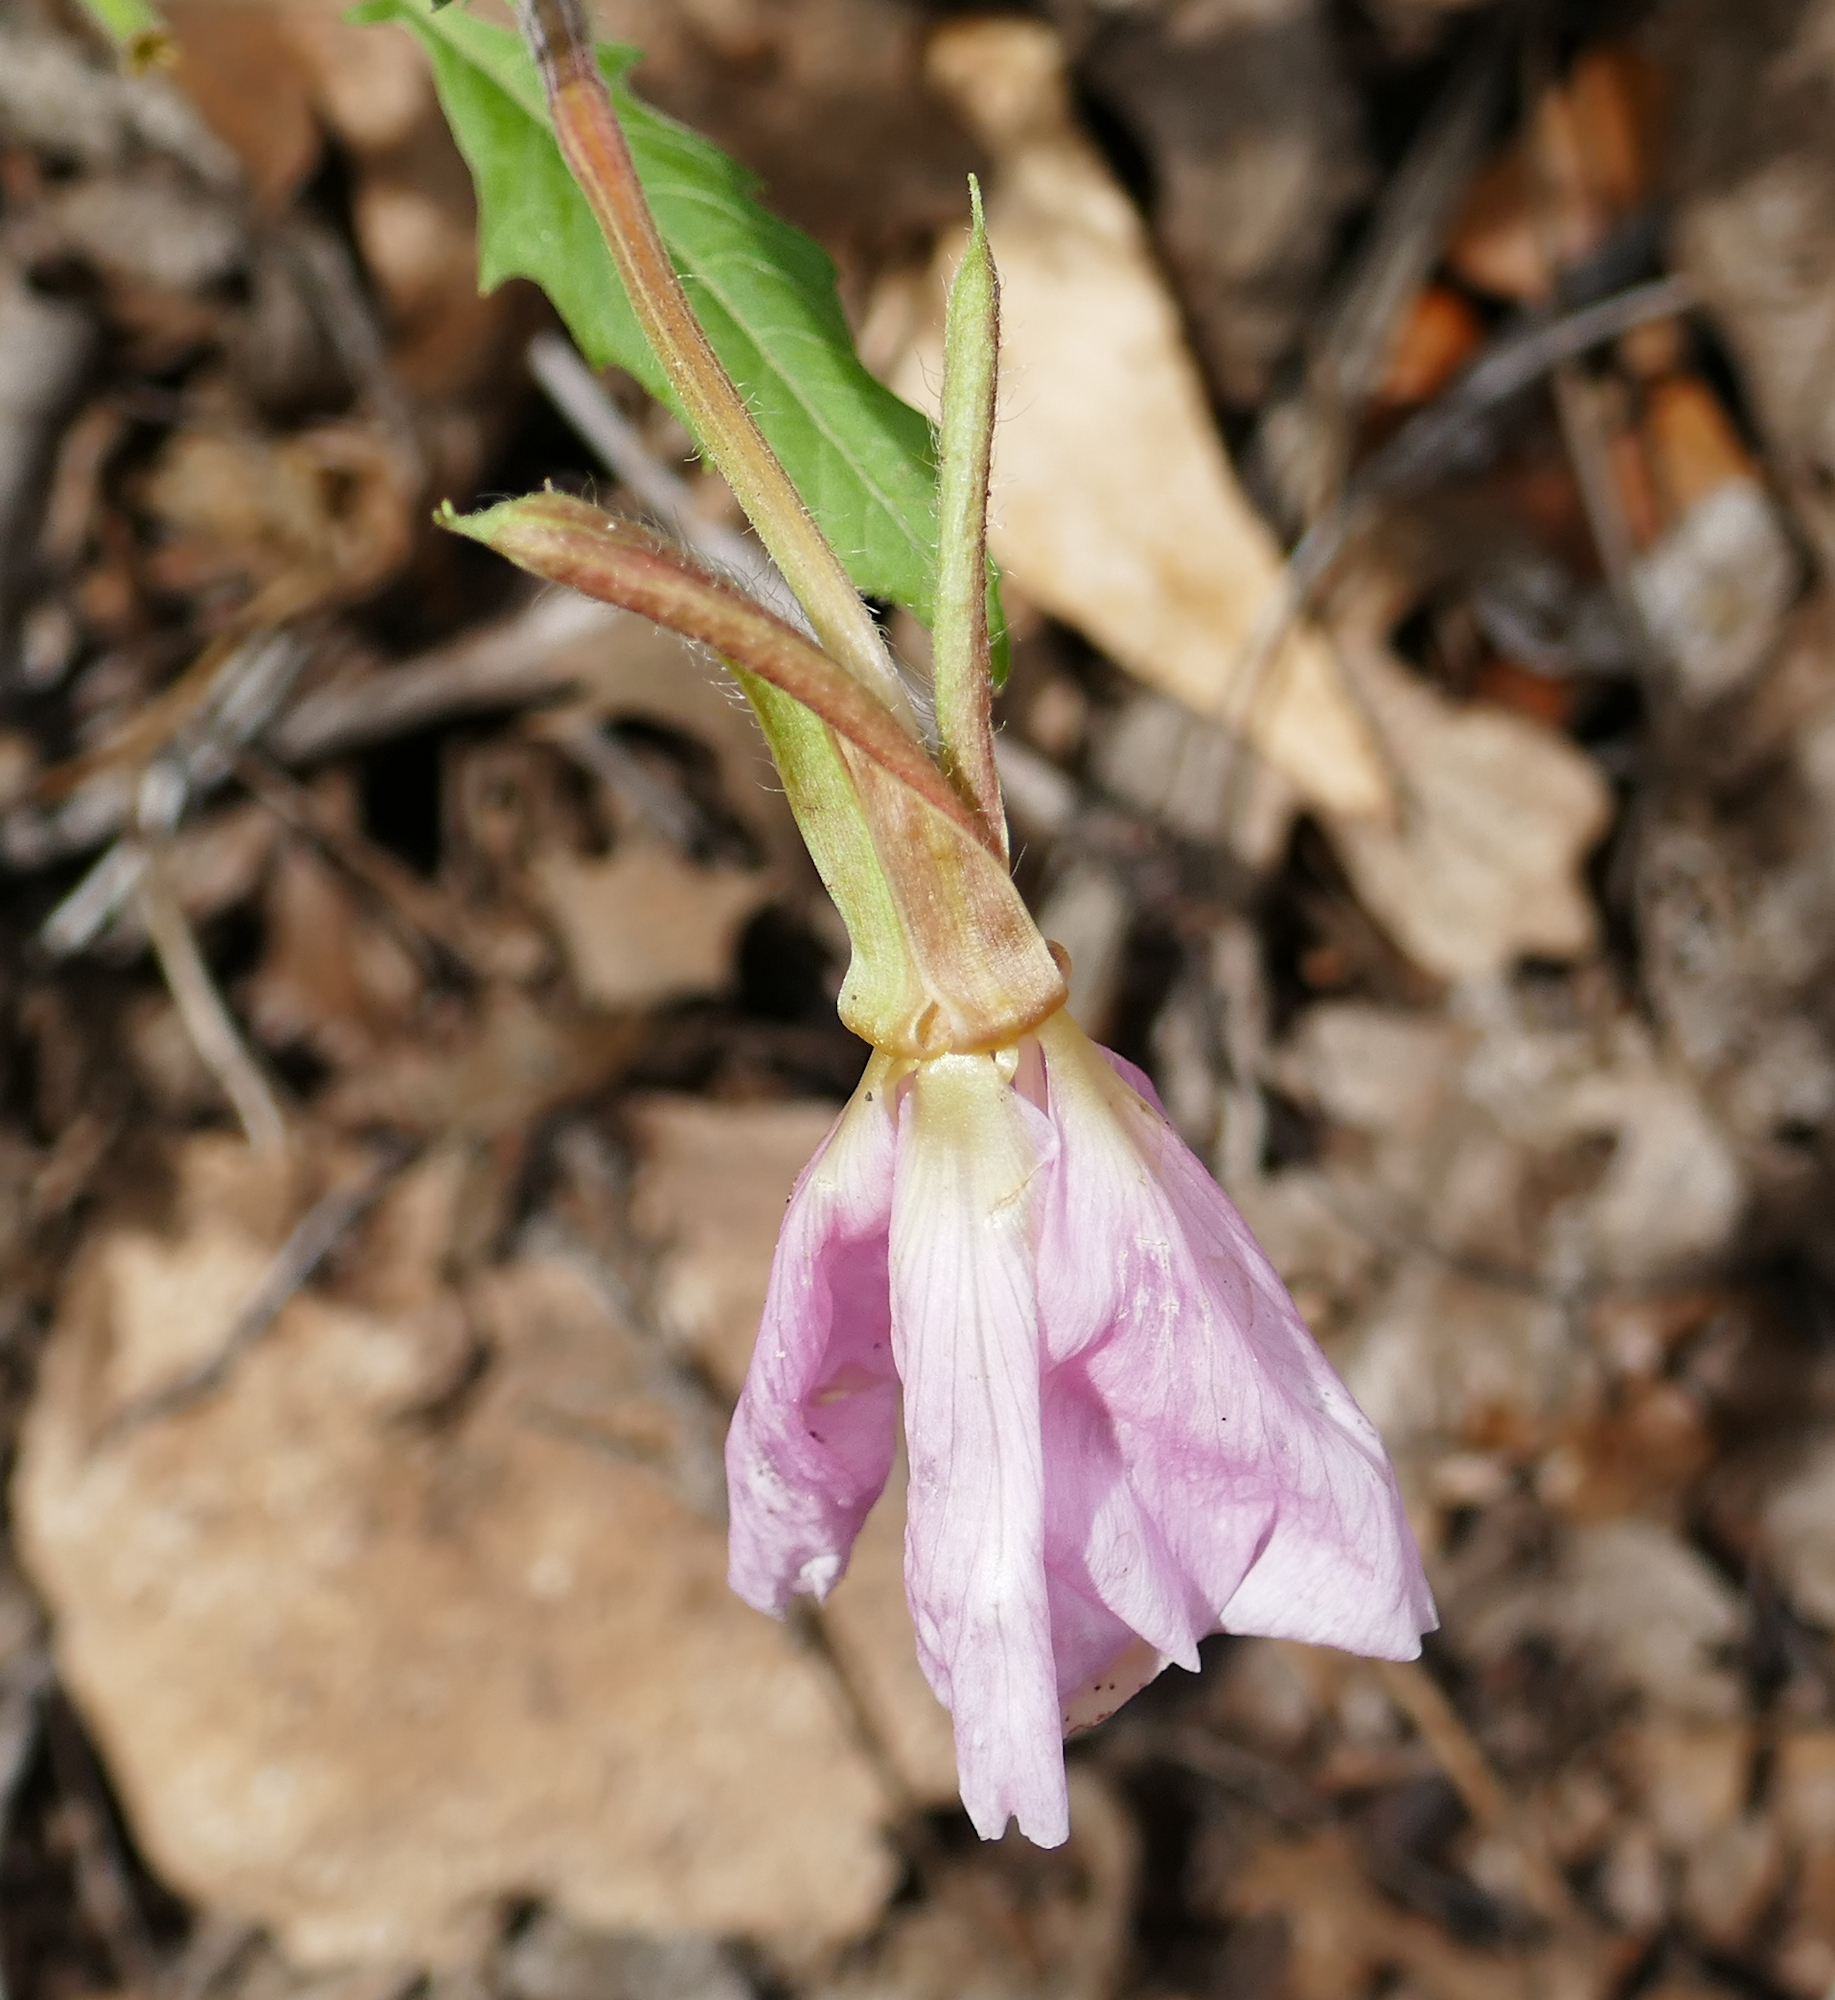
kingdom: Plantae
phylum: Tracheophyta
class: Magnoliopsida
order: Myrtales
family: Onagraceae
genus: Oenothera
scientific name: Oenothera neomexicana
